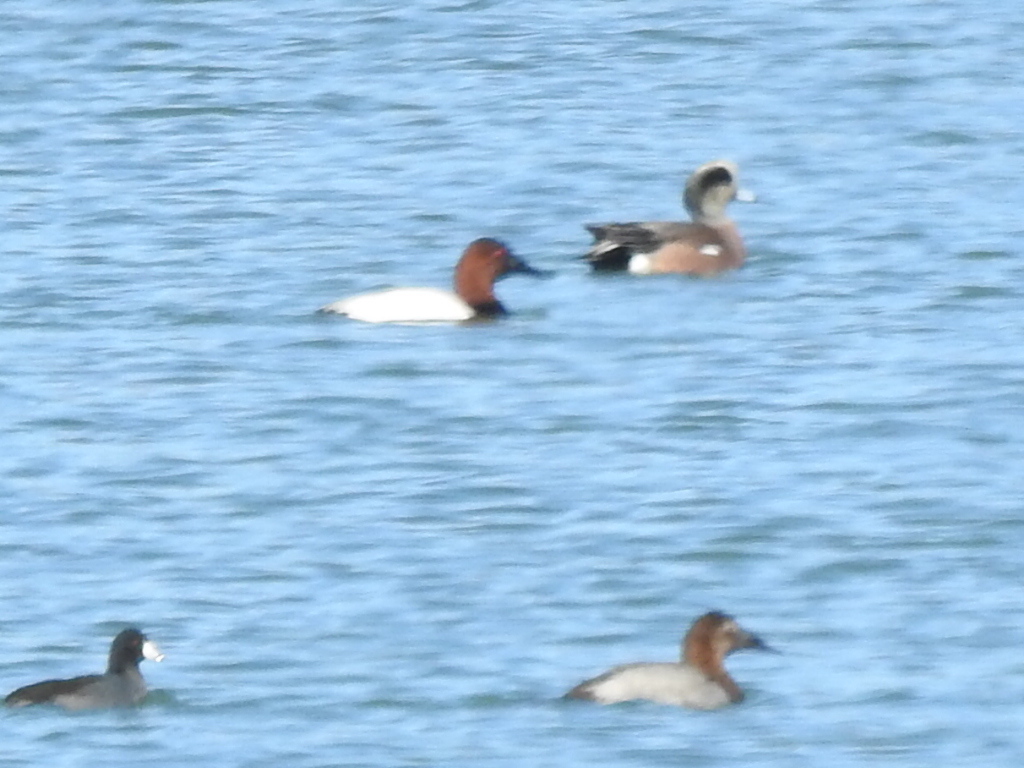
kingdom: Animalia
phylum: Chordata
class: Aves
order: Anseriformes
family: Anatidae
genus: Aythya
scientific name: Aythya valisineria
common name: Canvasback
